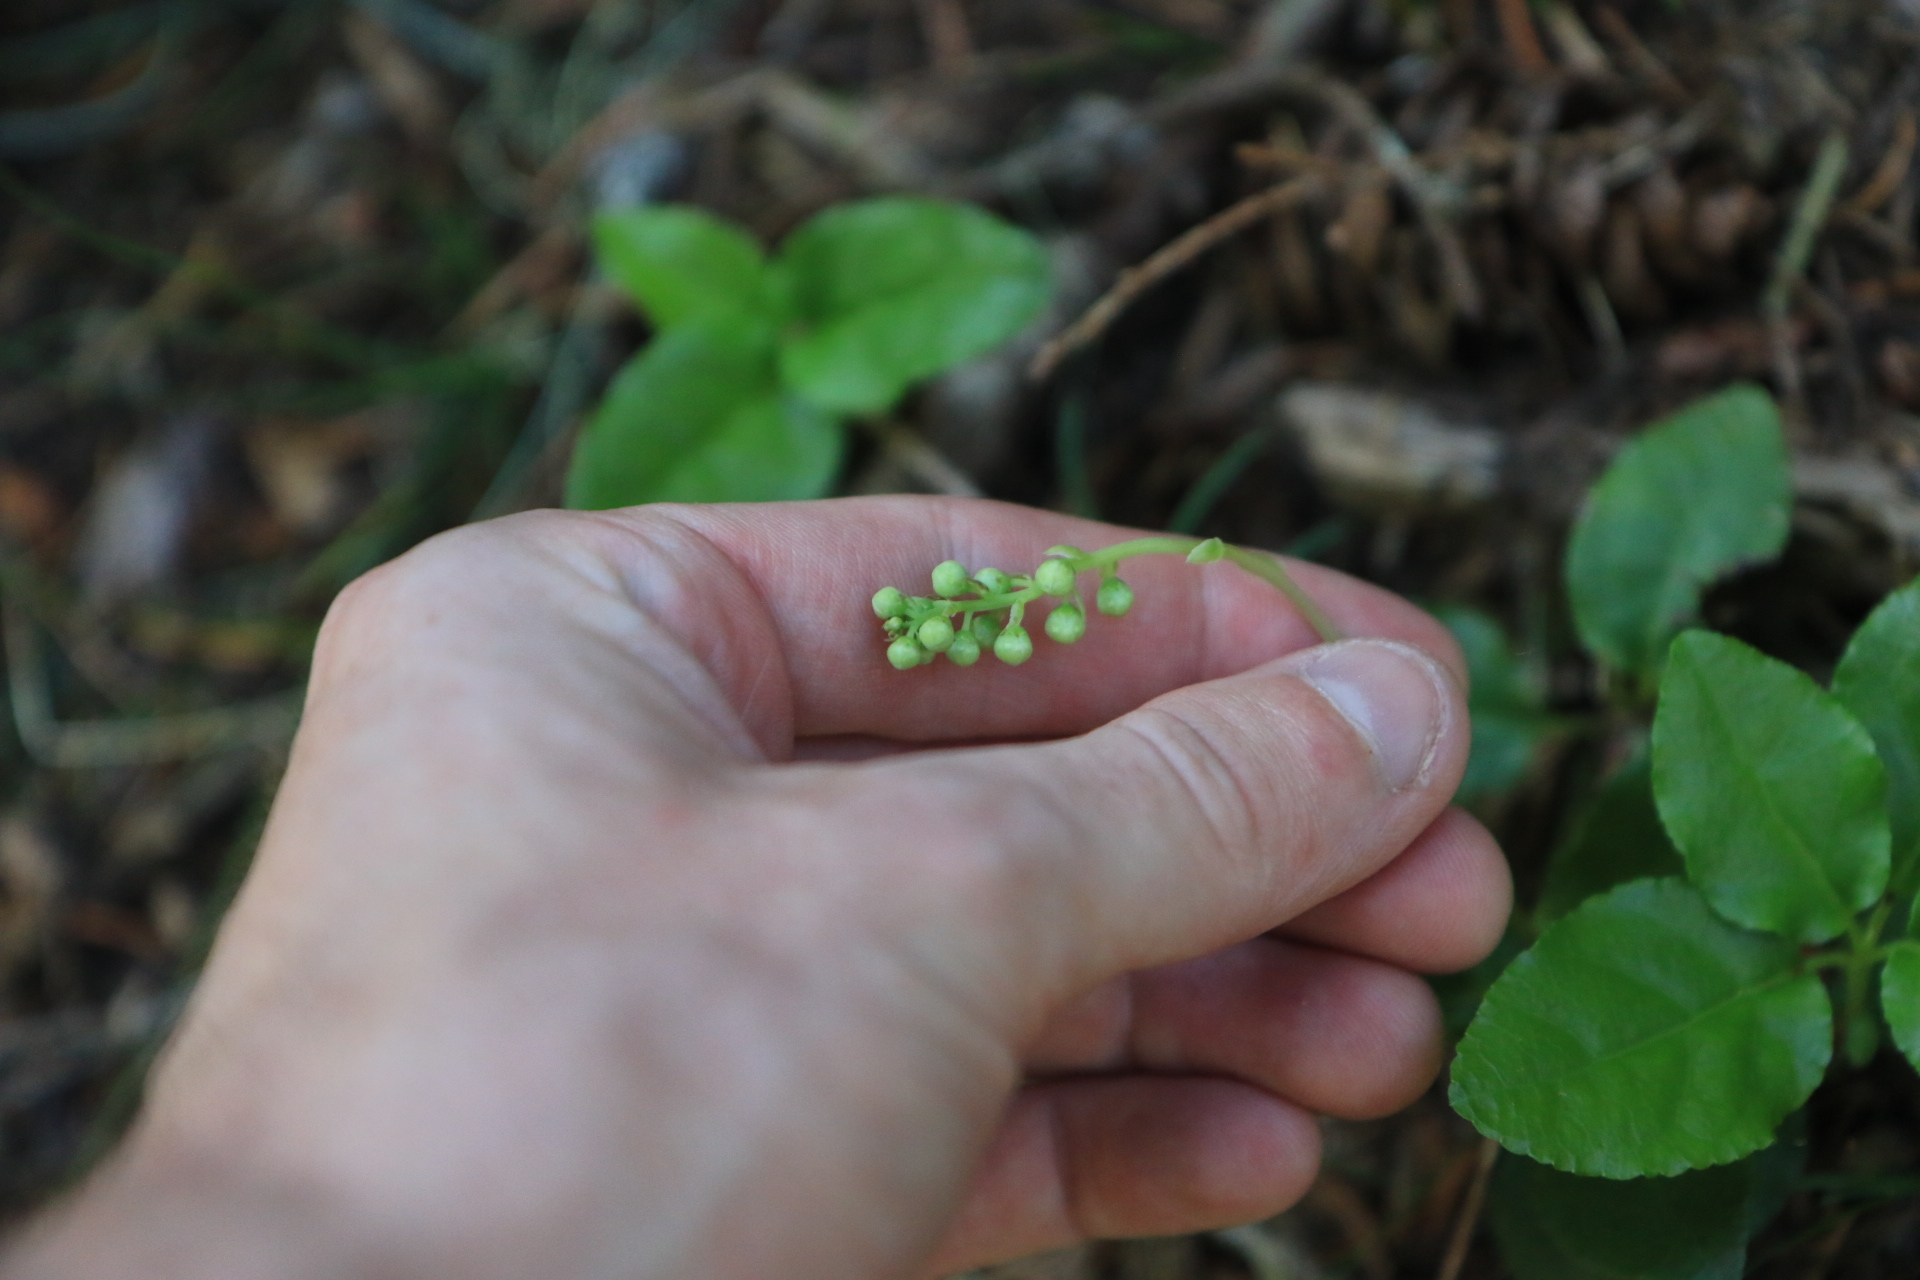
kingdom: Plantae
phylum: Tracheophyta
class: Magnoliopsida
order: Ericales
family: Ericaceae
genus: Orthilia
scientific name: Orthilia secunda
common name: One-sided orthilia
